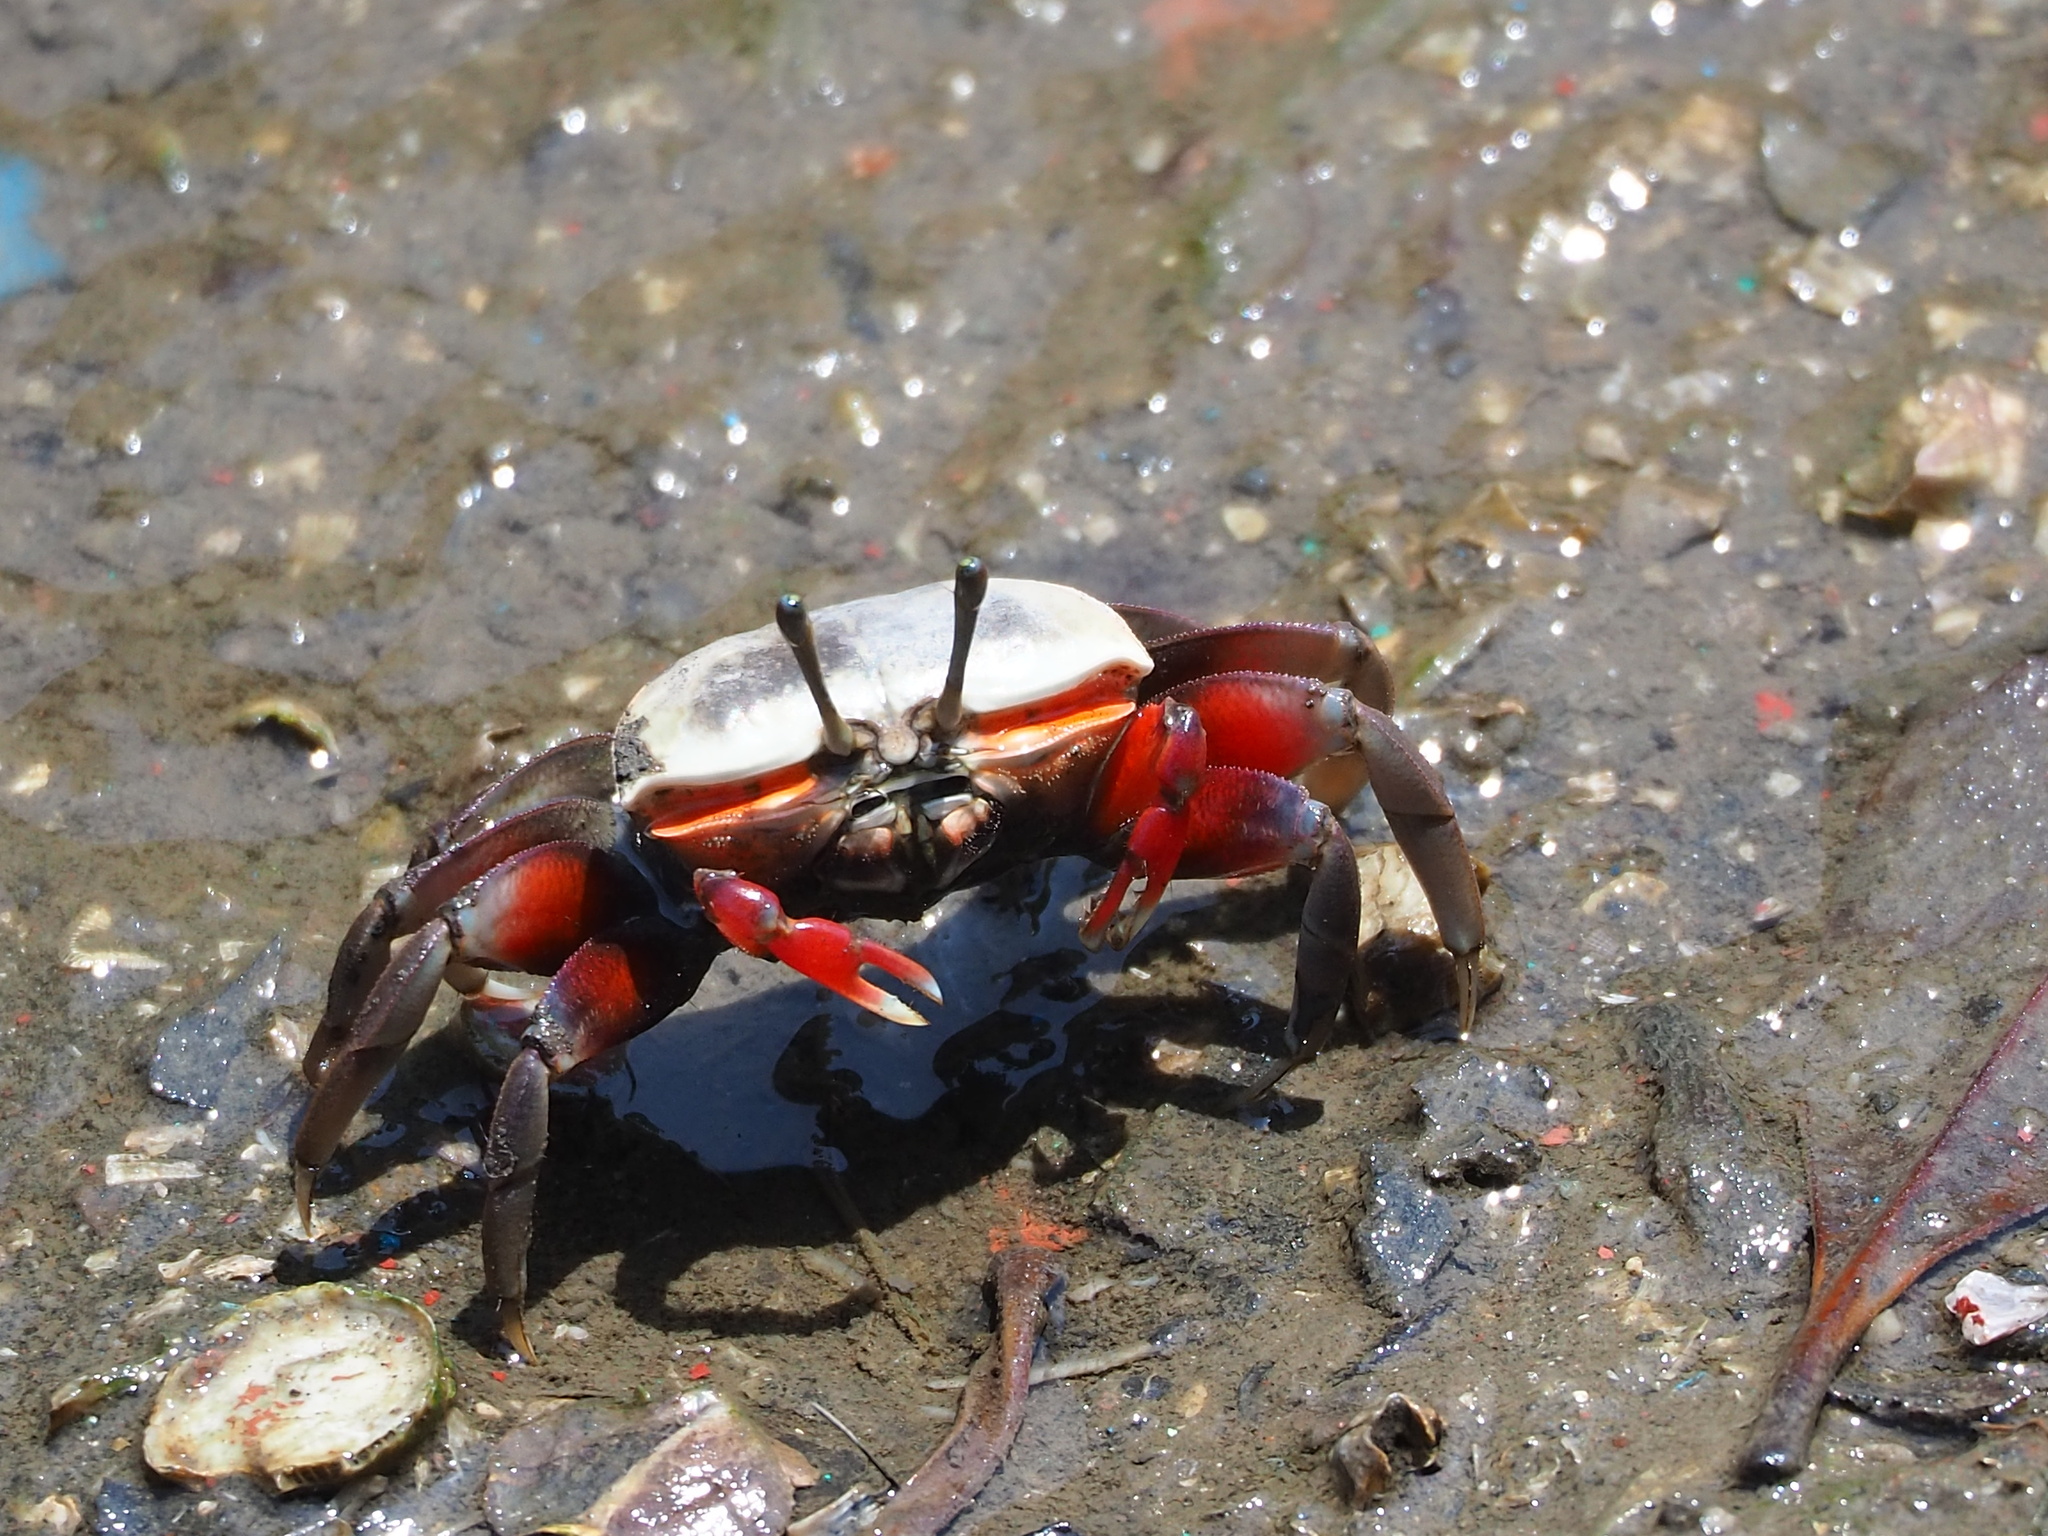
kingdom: Animalia
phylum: Arthropoda
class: Malacostraca
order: Decapoda
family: Ocypodidae
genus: Tubuca
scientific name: Tubuca arcuata
